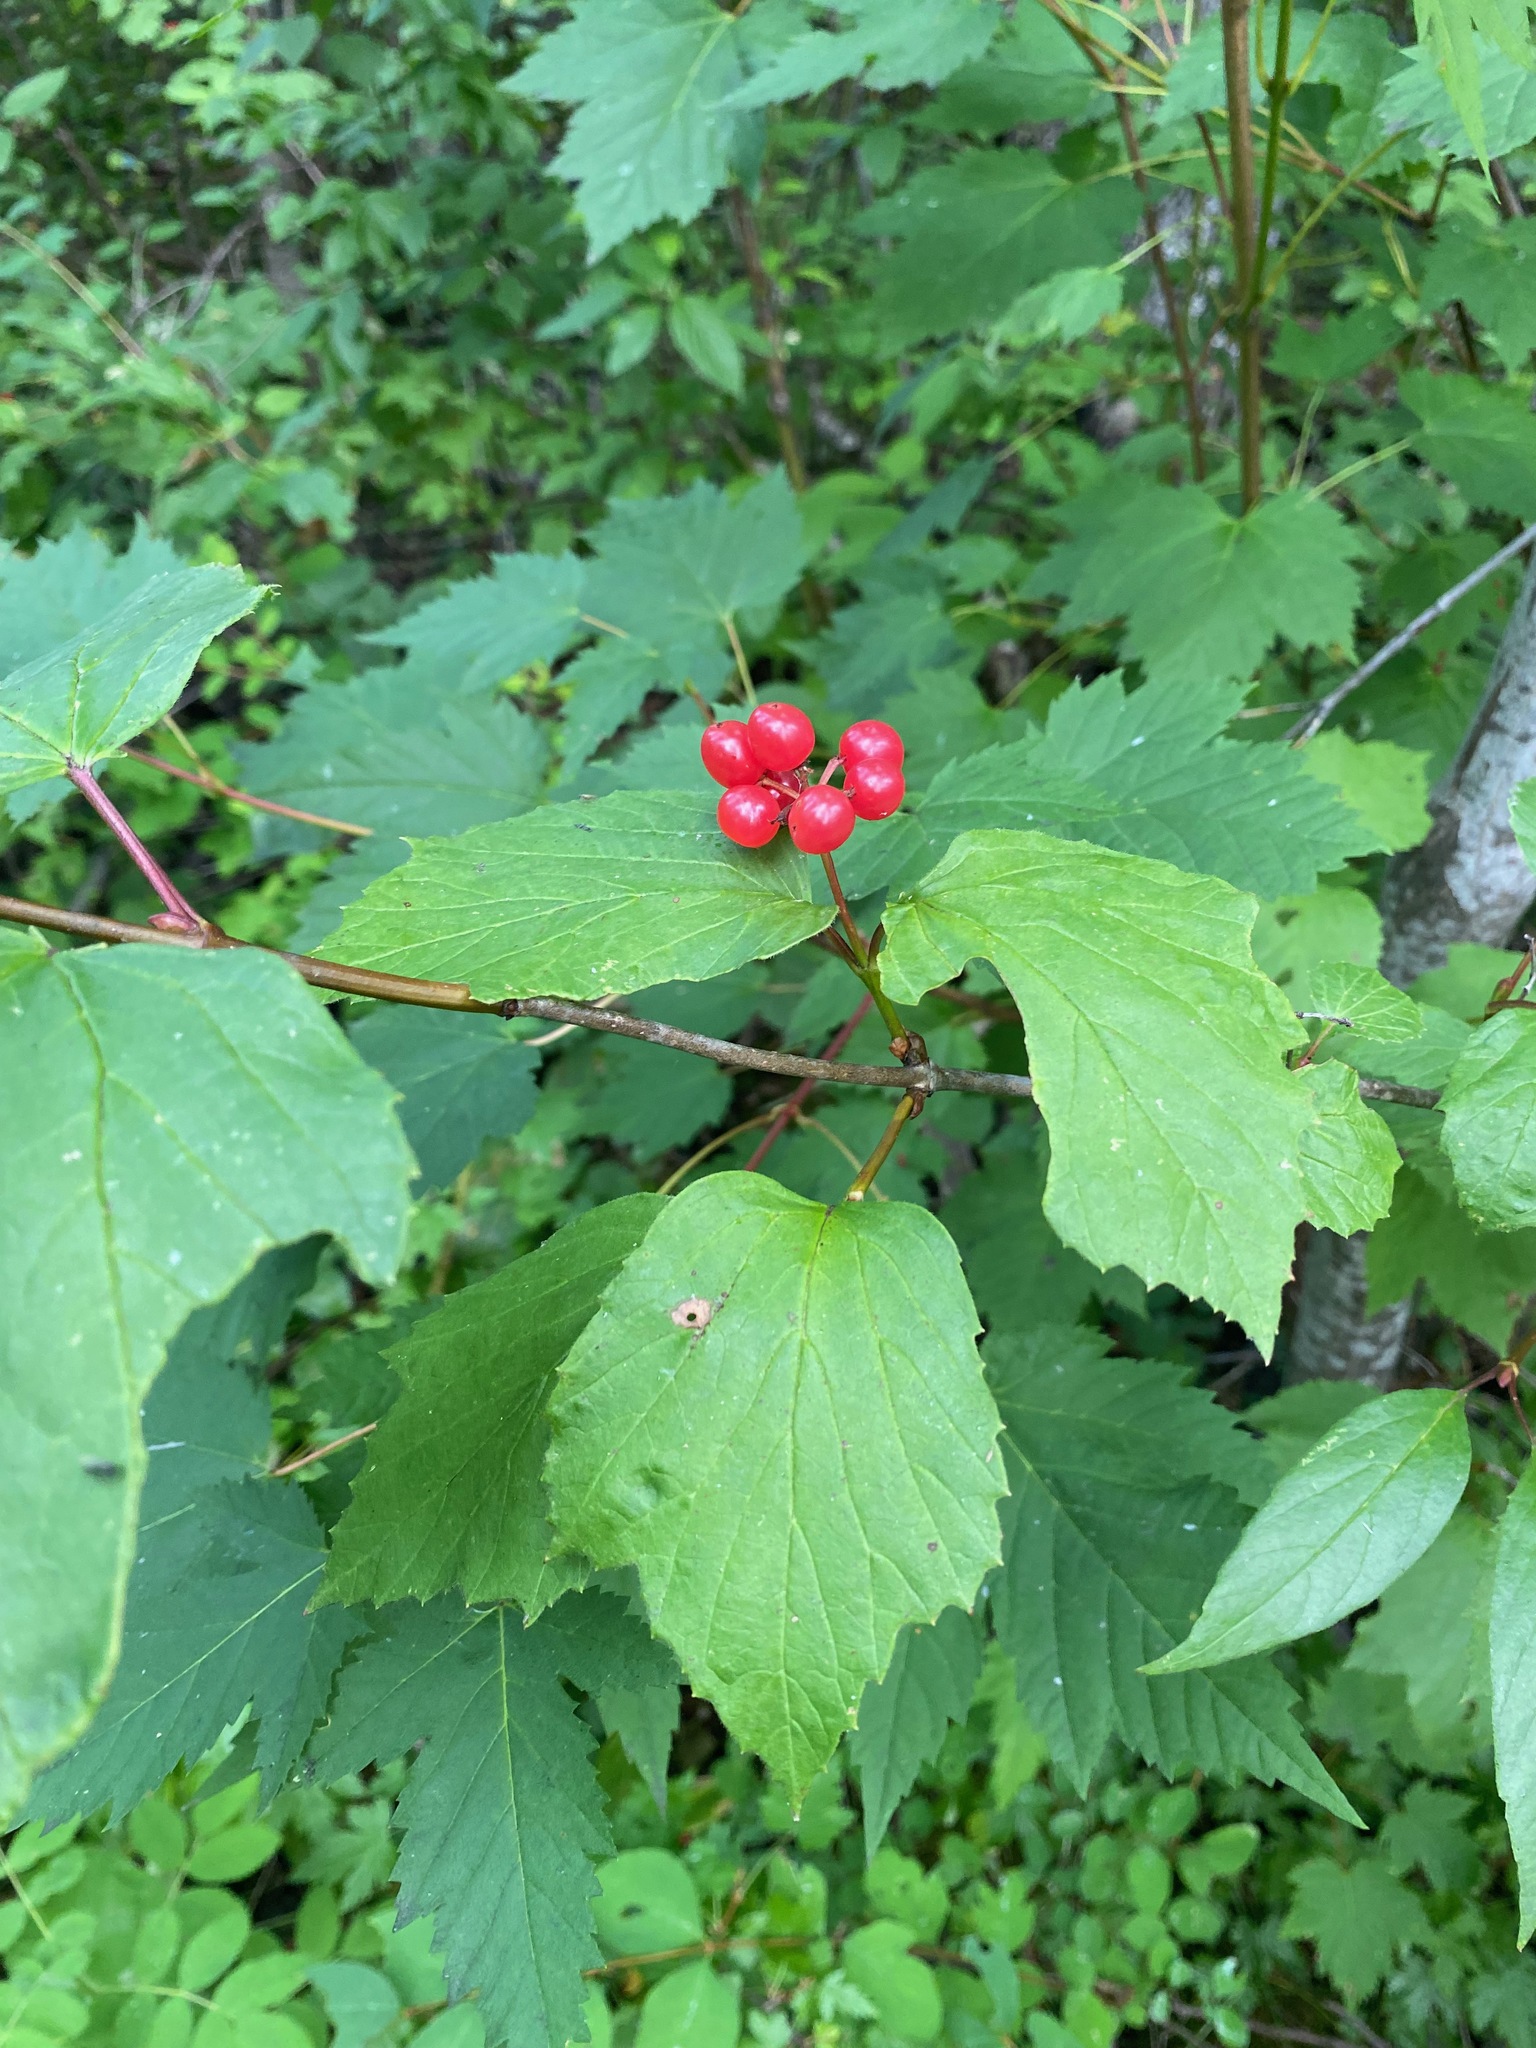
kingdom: Plantae
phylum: Tracheophyta
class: Magnoliopsida
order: Dipsacales
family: Viburnaceae
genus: Viburnum
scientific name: Viburnum edule
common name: Mooseberry
